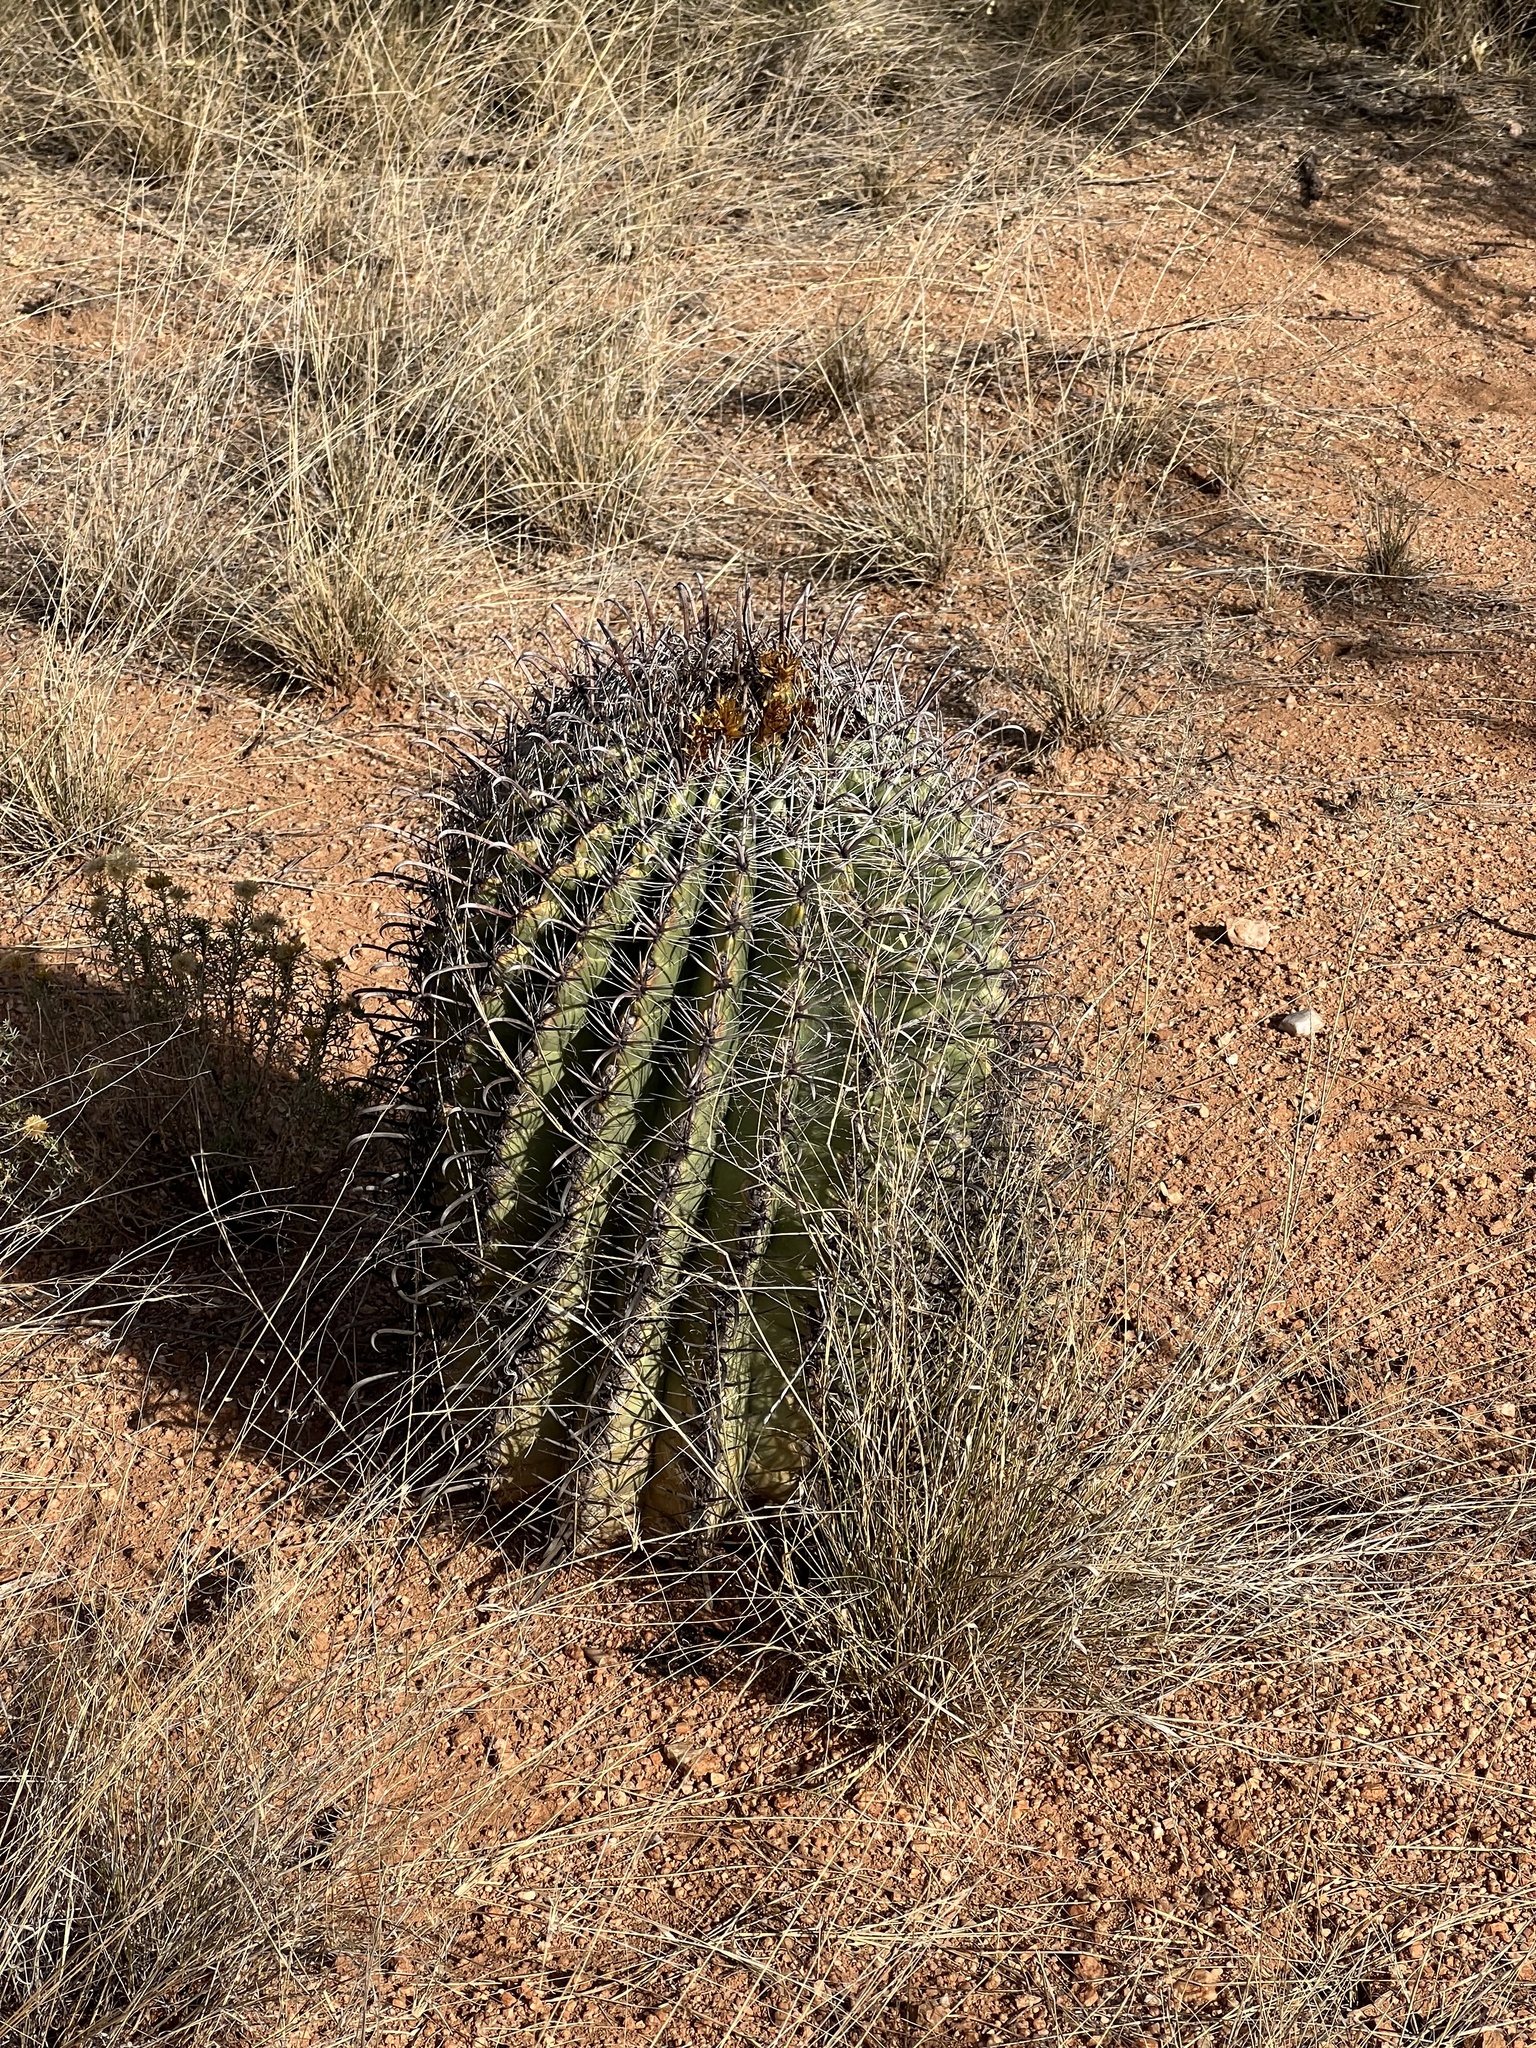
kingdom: Plantae
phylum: Tracheophyta
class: Magnoliopsida
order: Caryophyllales
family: Cactaceae
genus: Ferocactus
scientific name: Ferocactus wislizeni
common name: Candy barrel cactus
